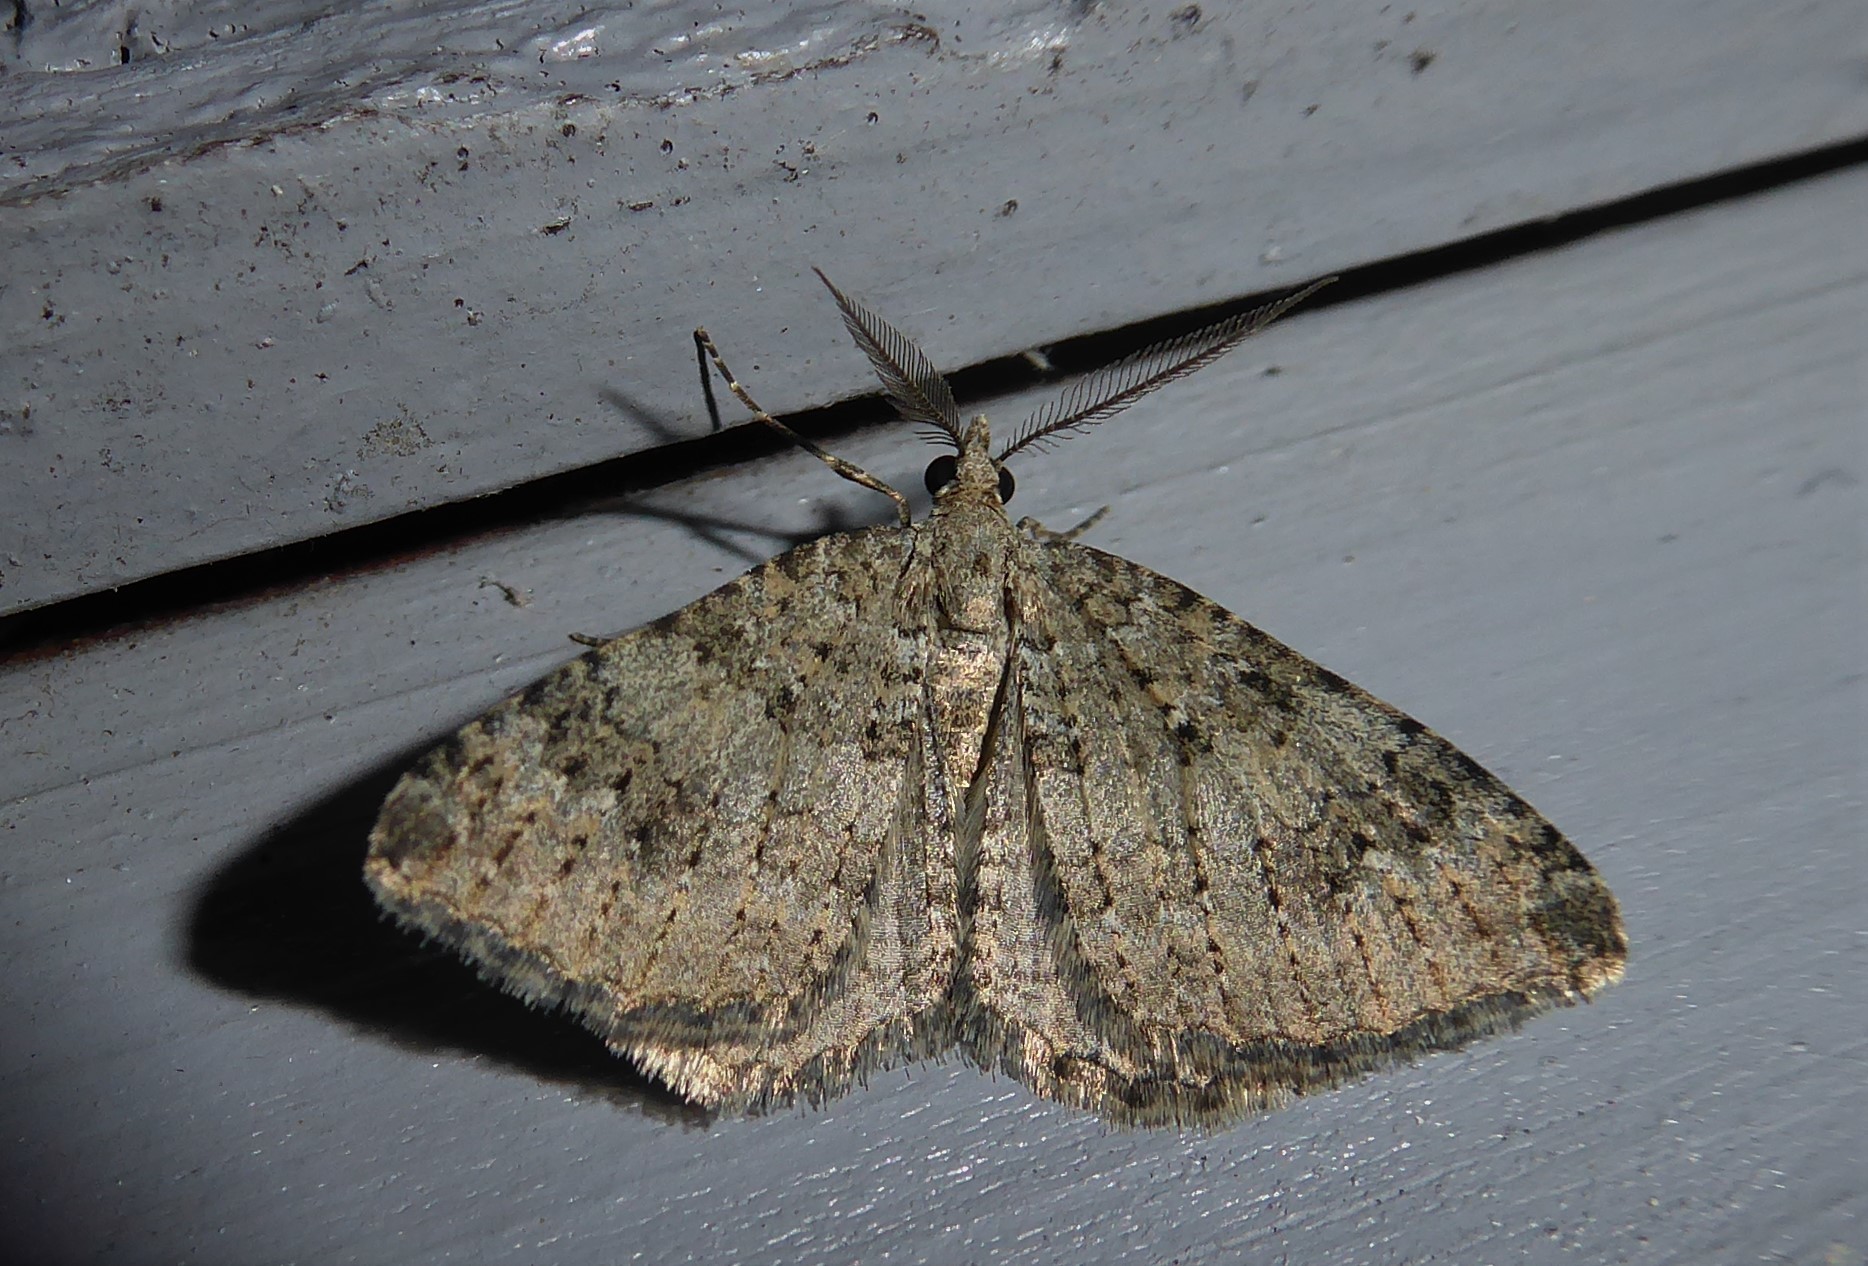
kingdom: Animalia
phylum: Arthropoda
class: Insecta
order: Lepidoptera
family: Geometridae
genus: Helastia
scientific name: Helastia corcularia
